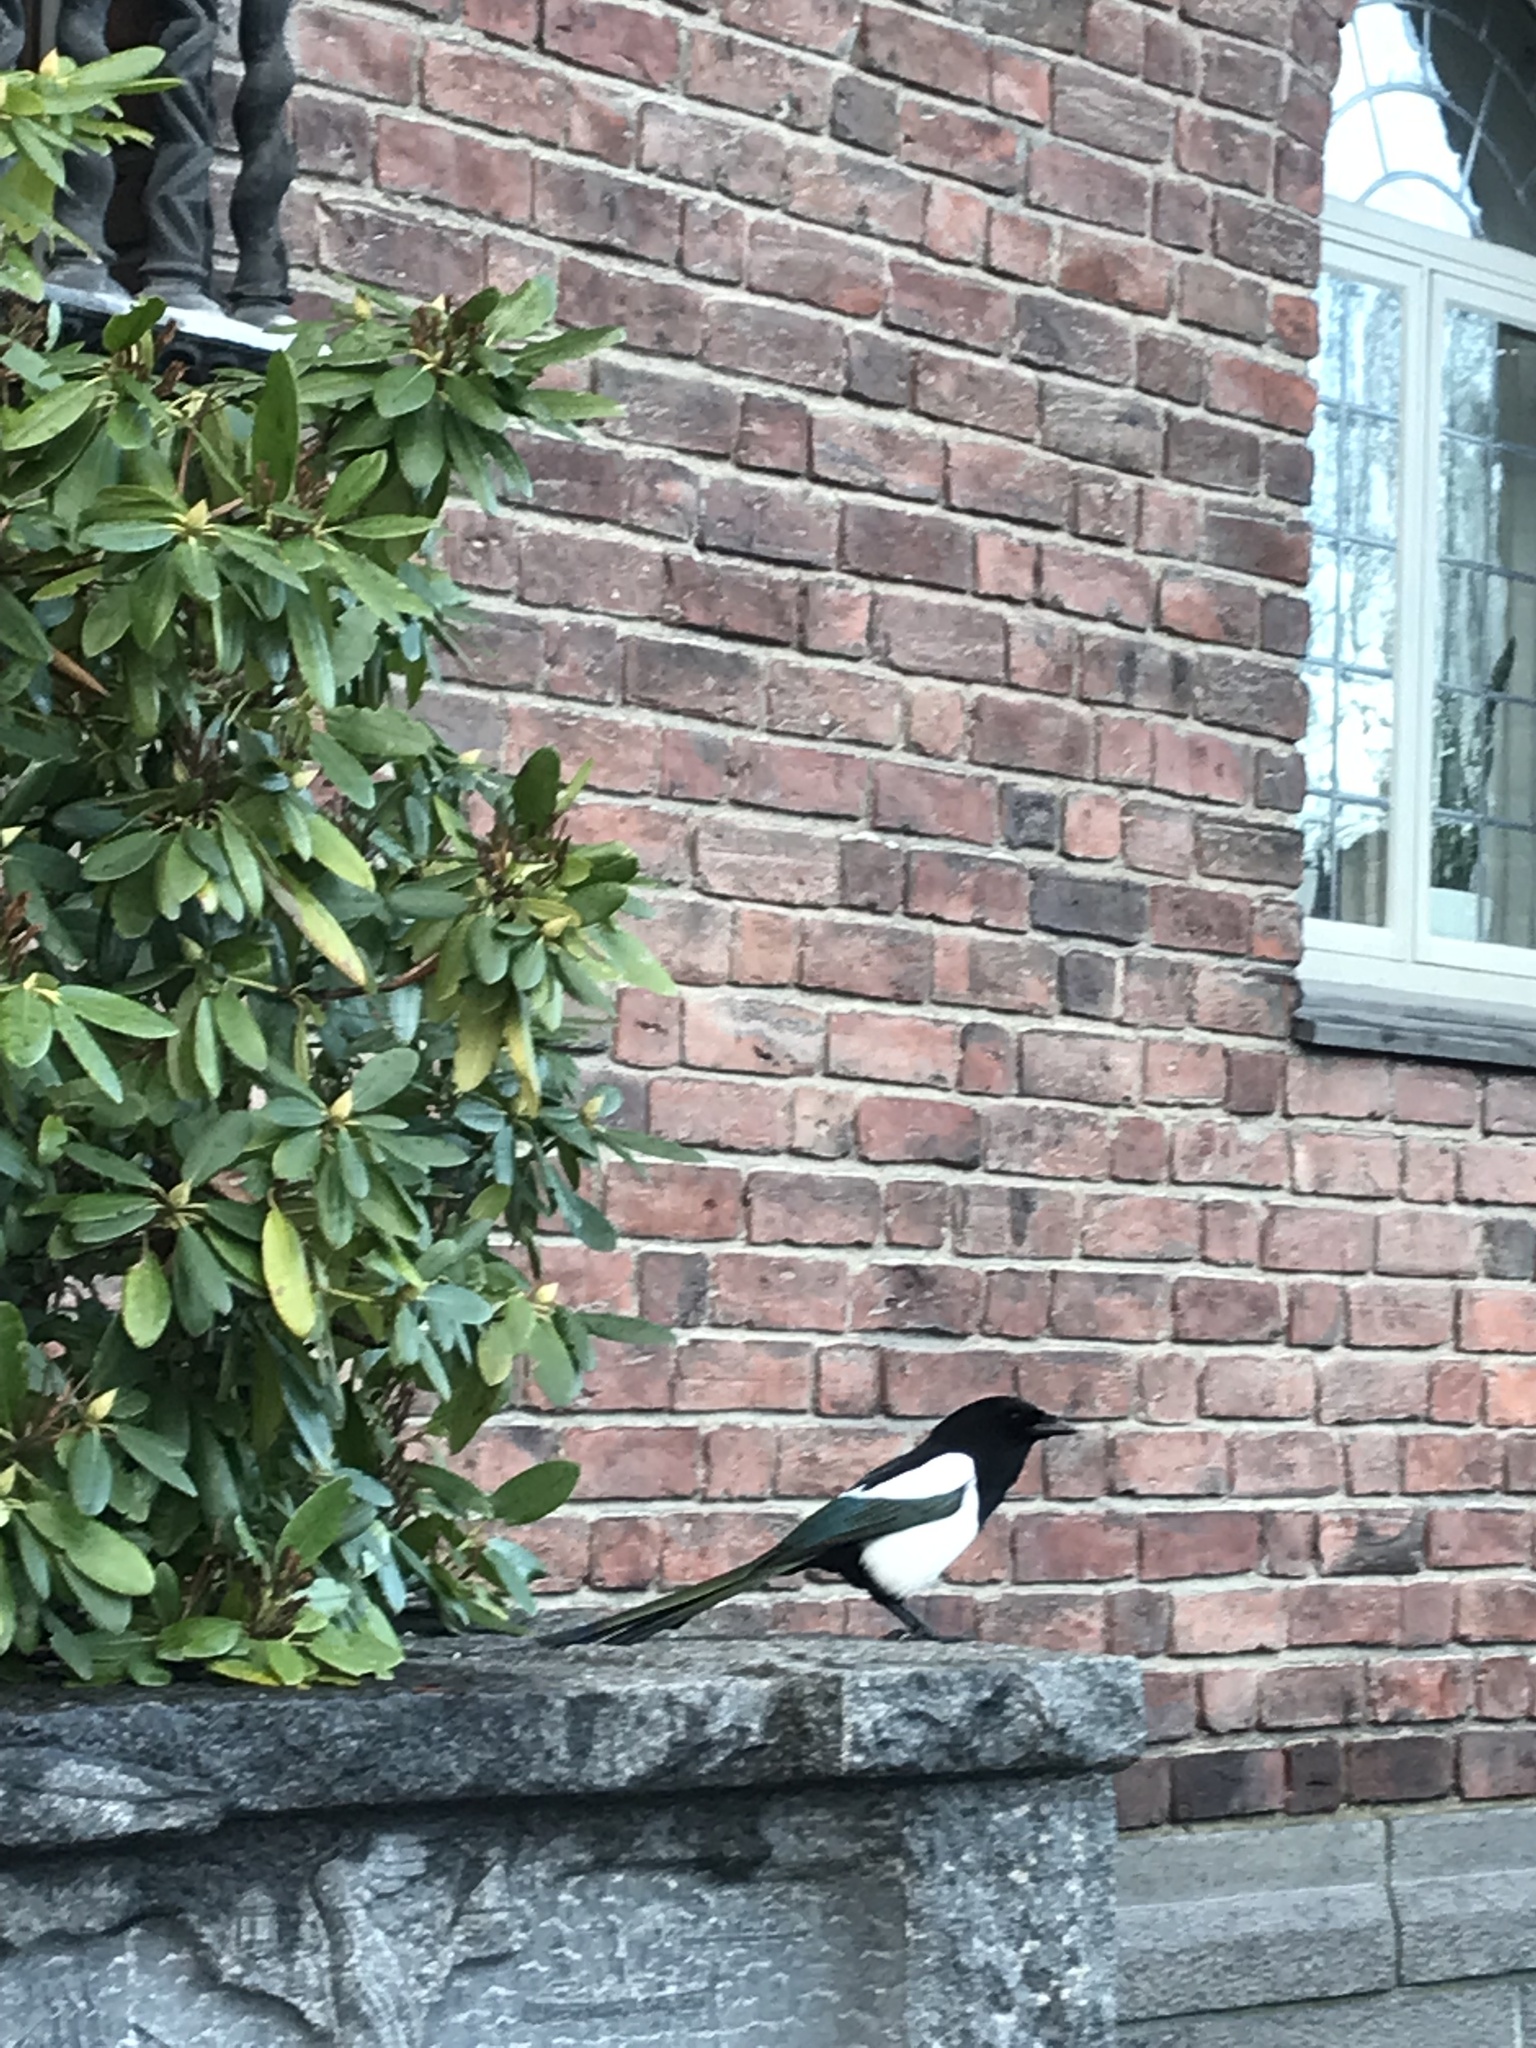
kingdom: Animalia
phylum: Chordata
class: Aves
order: Passeriformes
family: Corvidae
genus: Pica
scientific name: Pica pica
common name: Eurasian magpie
